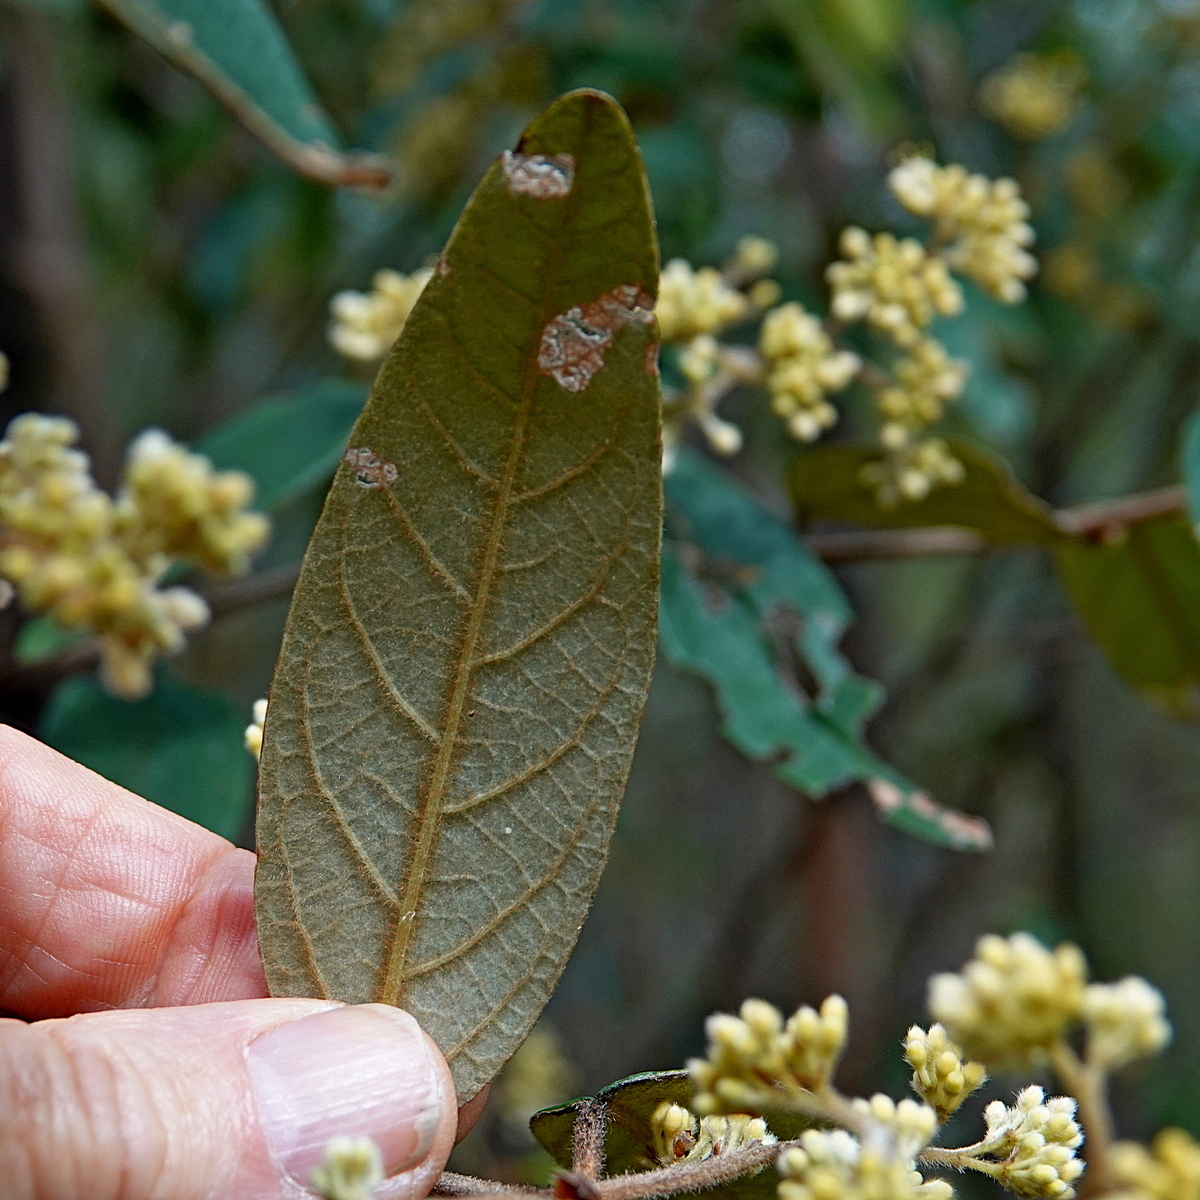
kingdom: Plantae
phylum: Tracheophyta
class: Magnoliopsida
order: Rosales
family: Rhamnaceae
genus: Pomaderris
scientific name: Pomaderris wendlandiana
